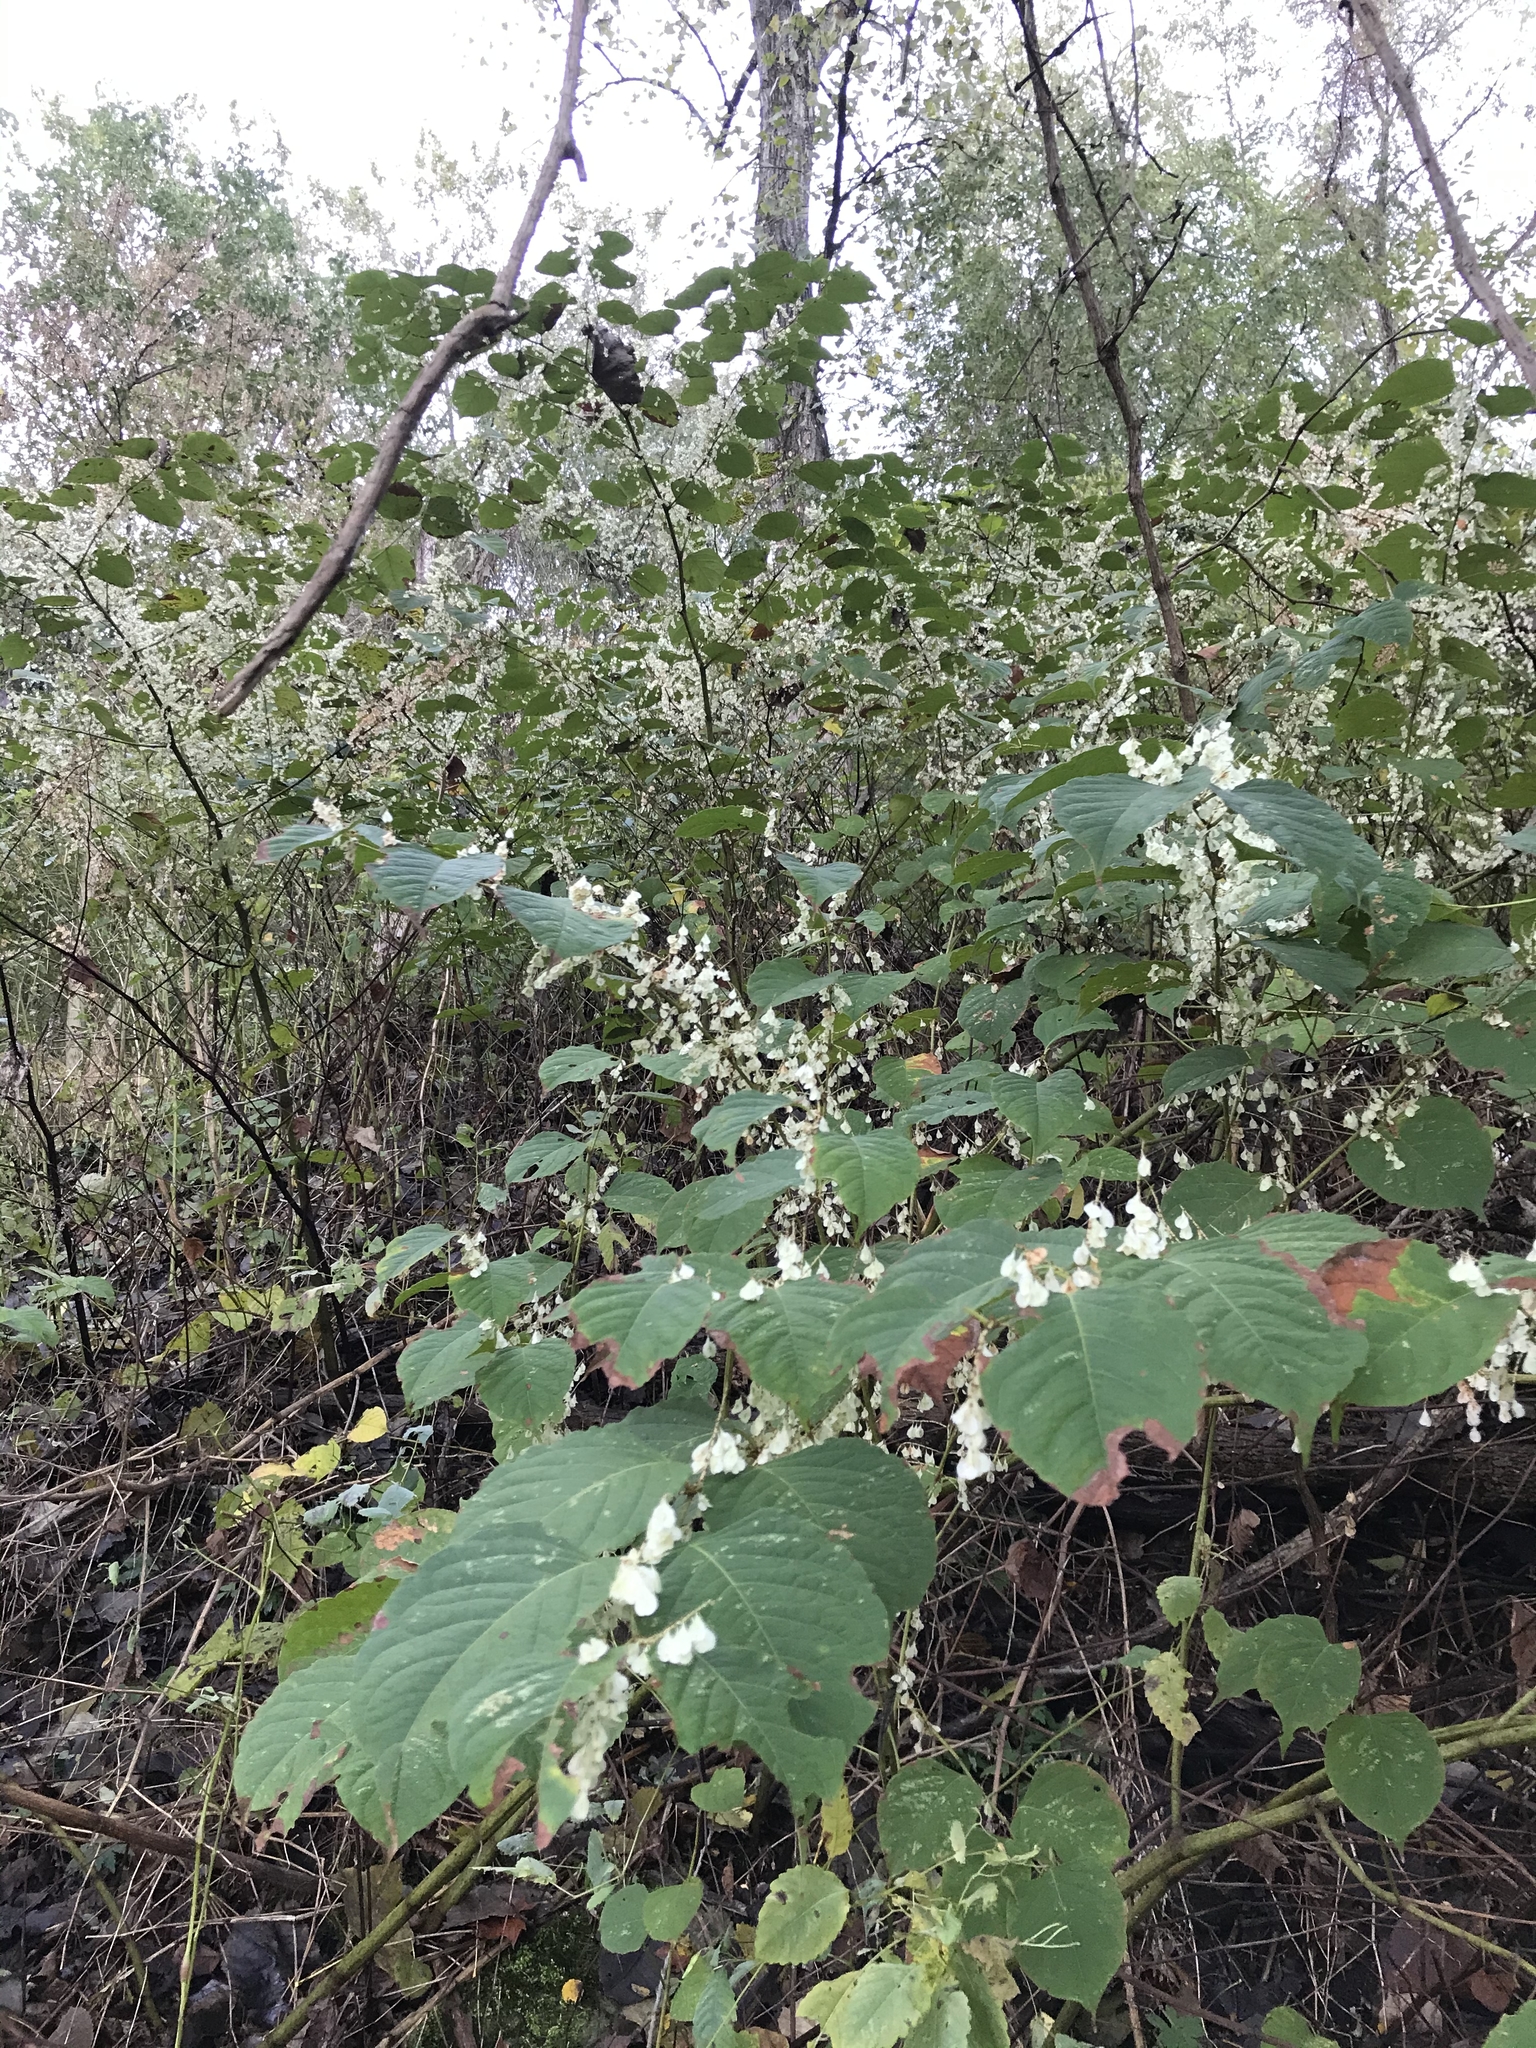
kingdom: Plantae
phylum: Tracheophyta
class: Magnoliopsida
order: Caryophyllales
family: Polygonaceae
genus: Reynoutria
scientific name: Reynoutria japonica
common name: Japanese knotweed
